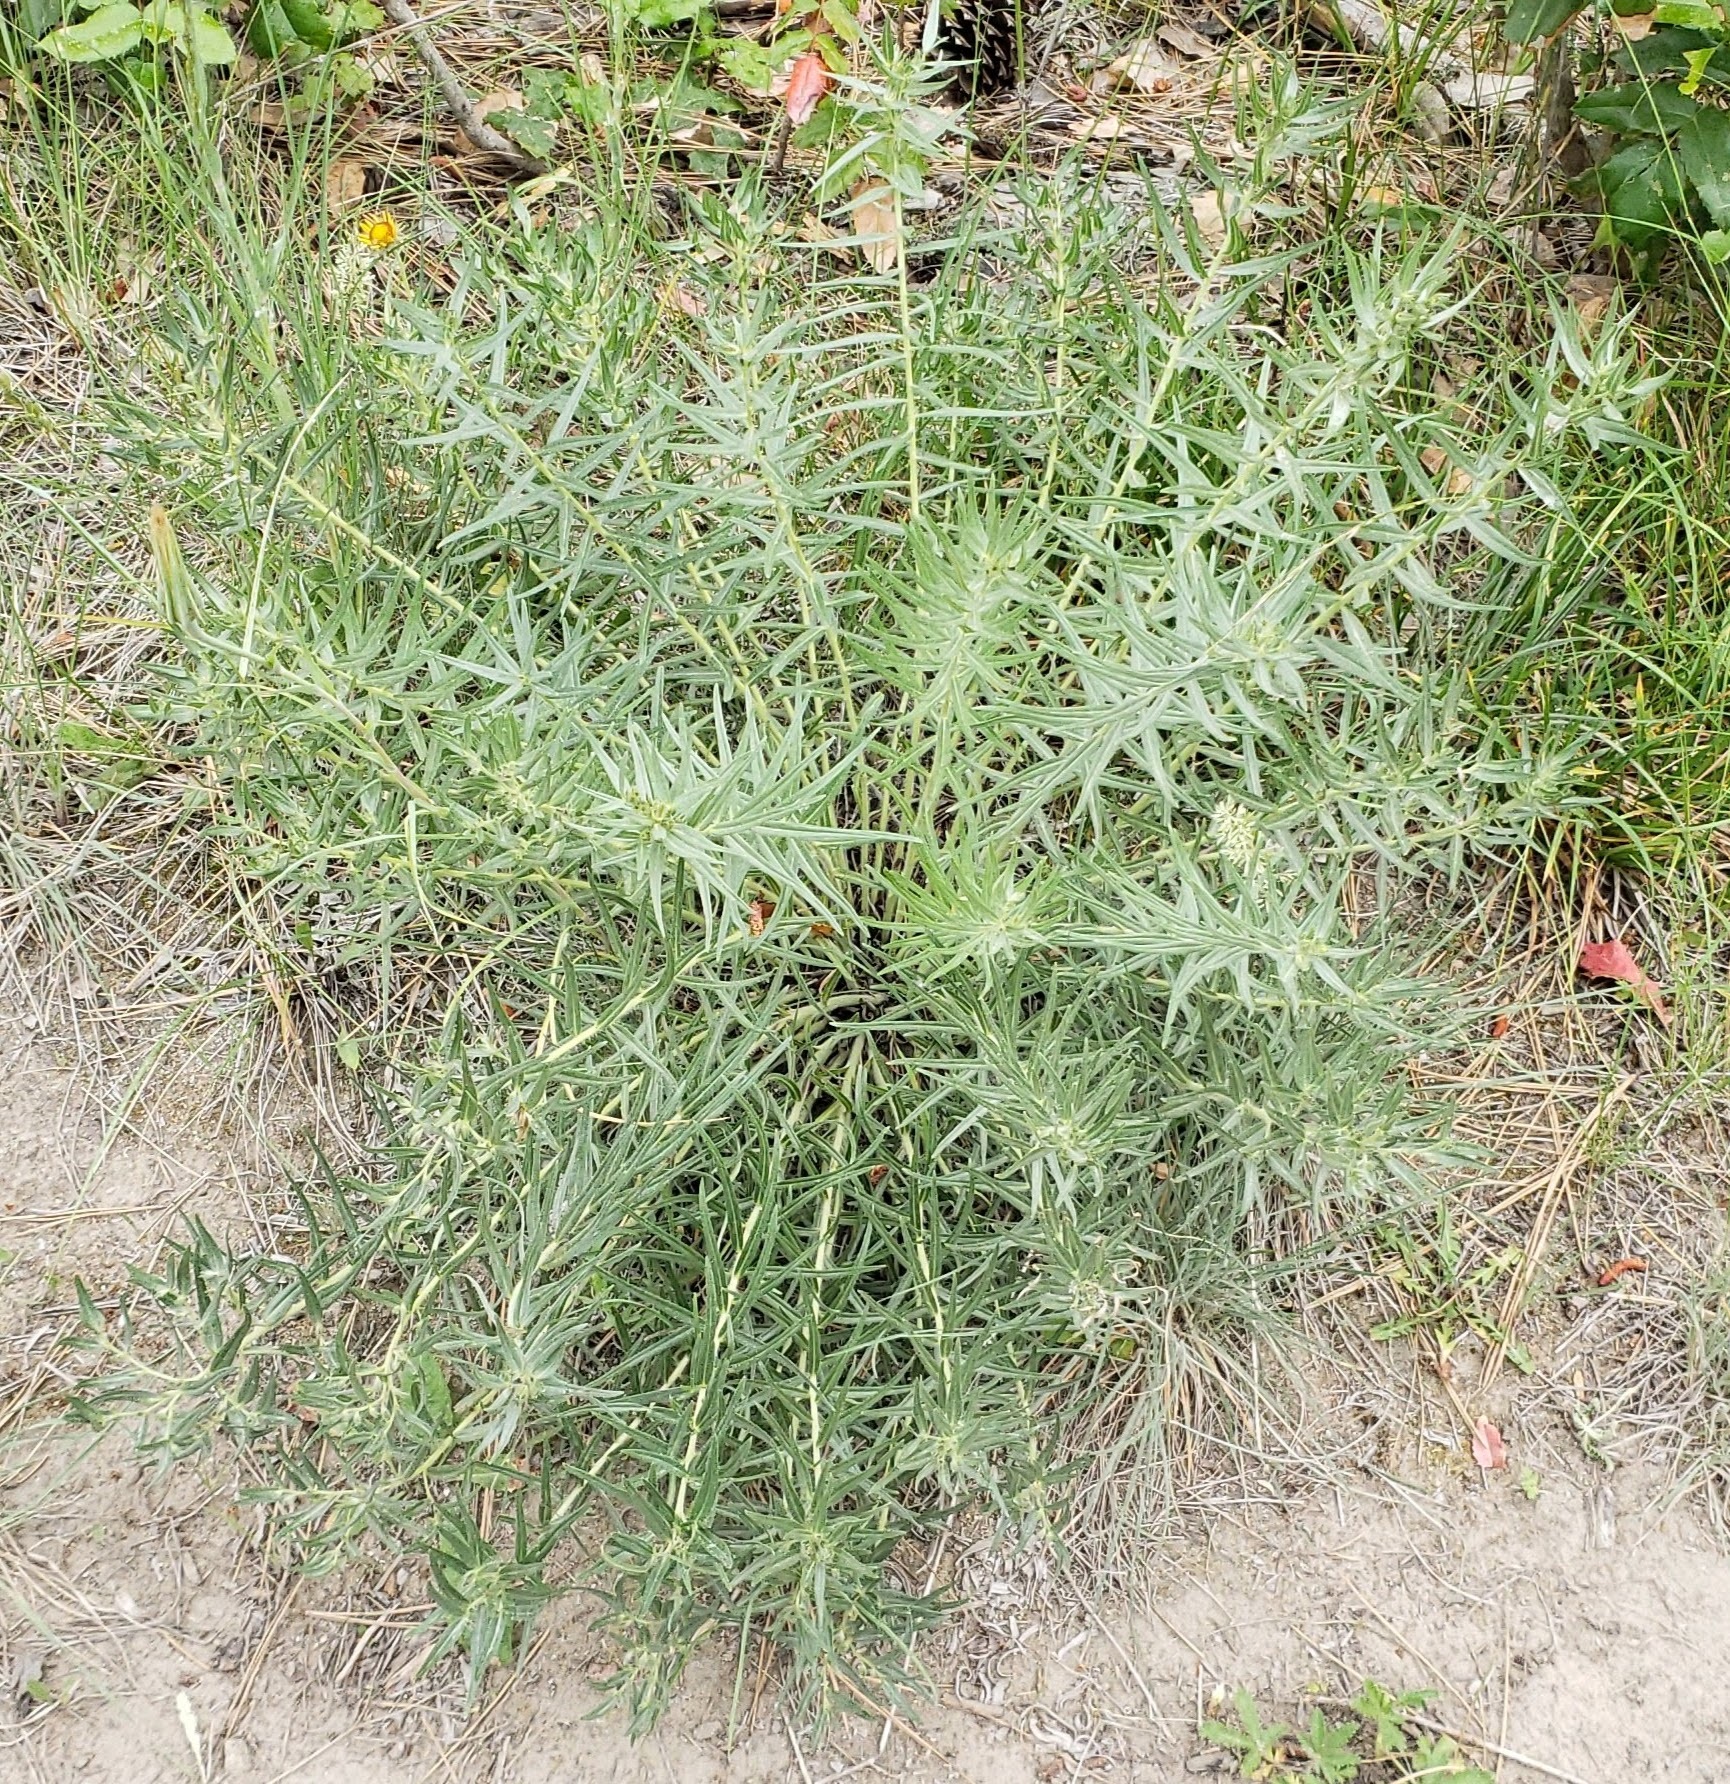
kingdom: Plantae
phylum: Tracheophyta
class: Magnoliopsida
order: Boraginales
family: Boraginaceae
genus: Lithospermum
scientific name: Lithospermum ruderale
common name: Western gromwell
